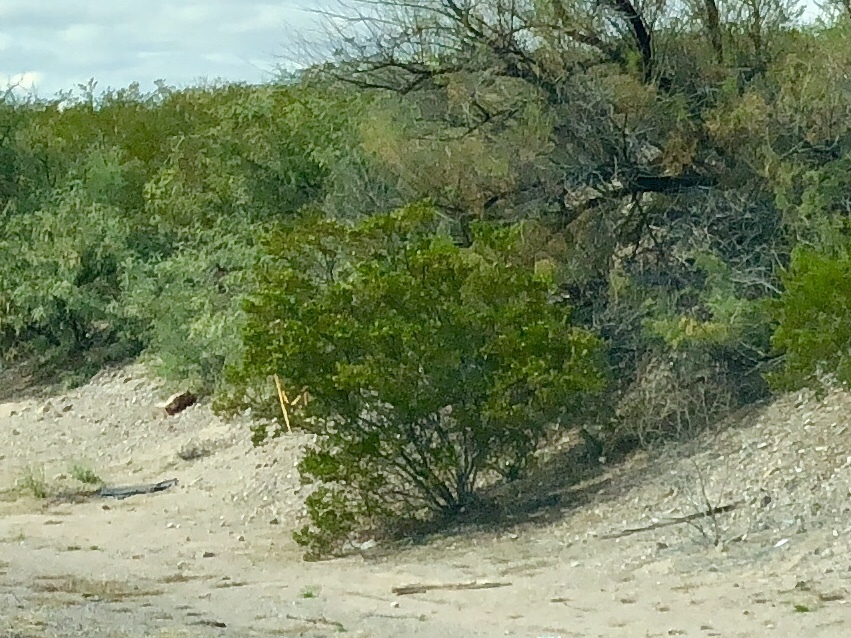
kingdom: Plantae
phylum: Tracheophyta
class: Magnoliopsida
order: Zygophyllales
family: Zygophyllaceae
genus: Larrea
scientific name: Larrea tridentata
